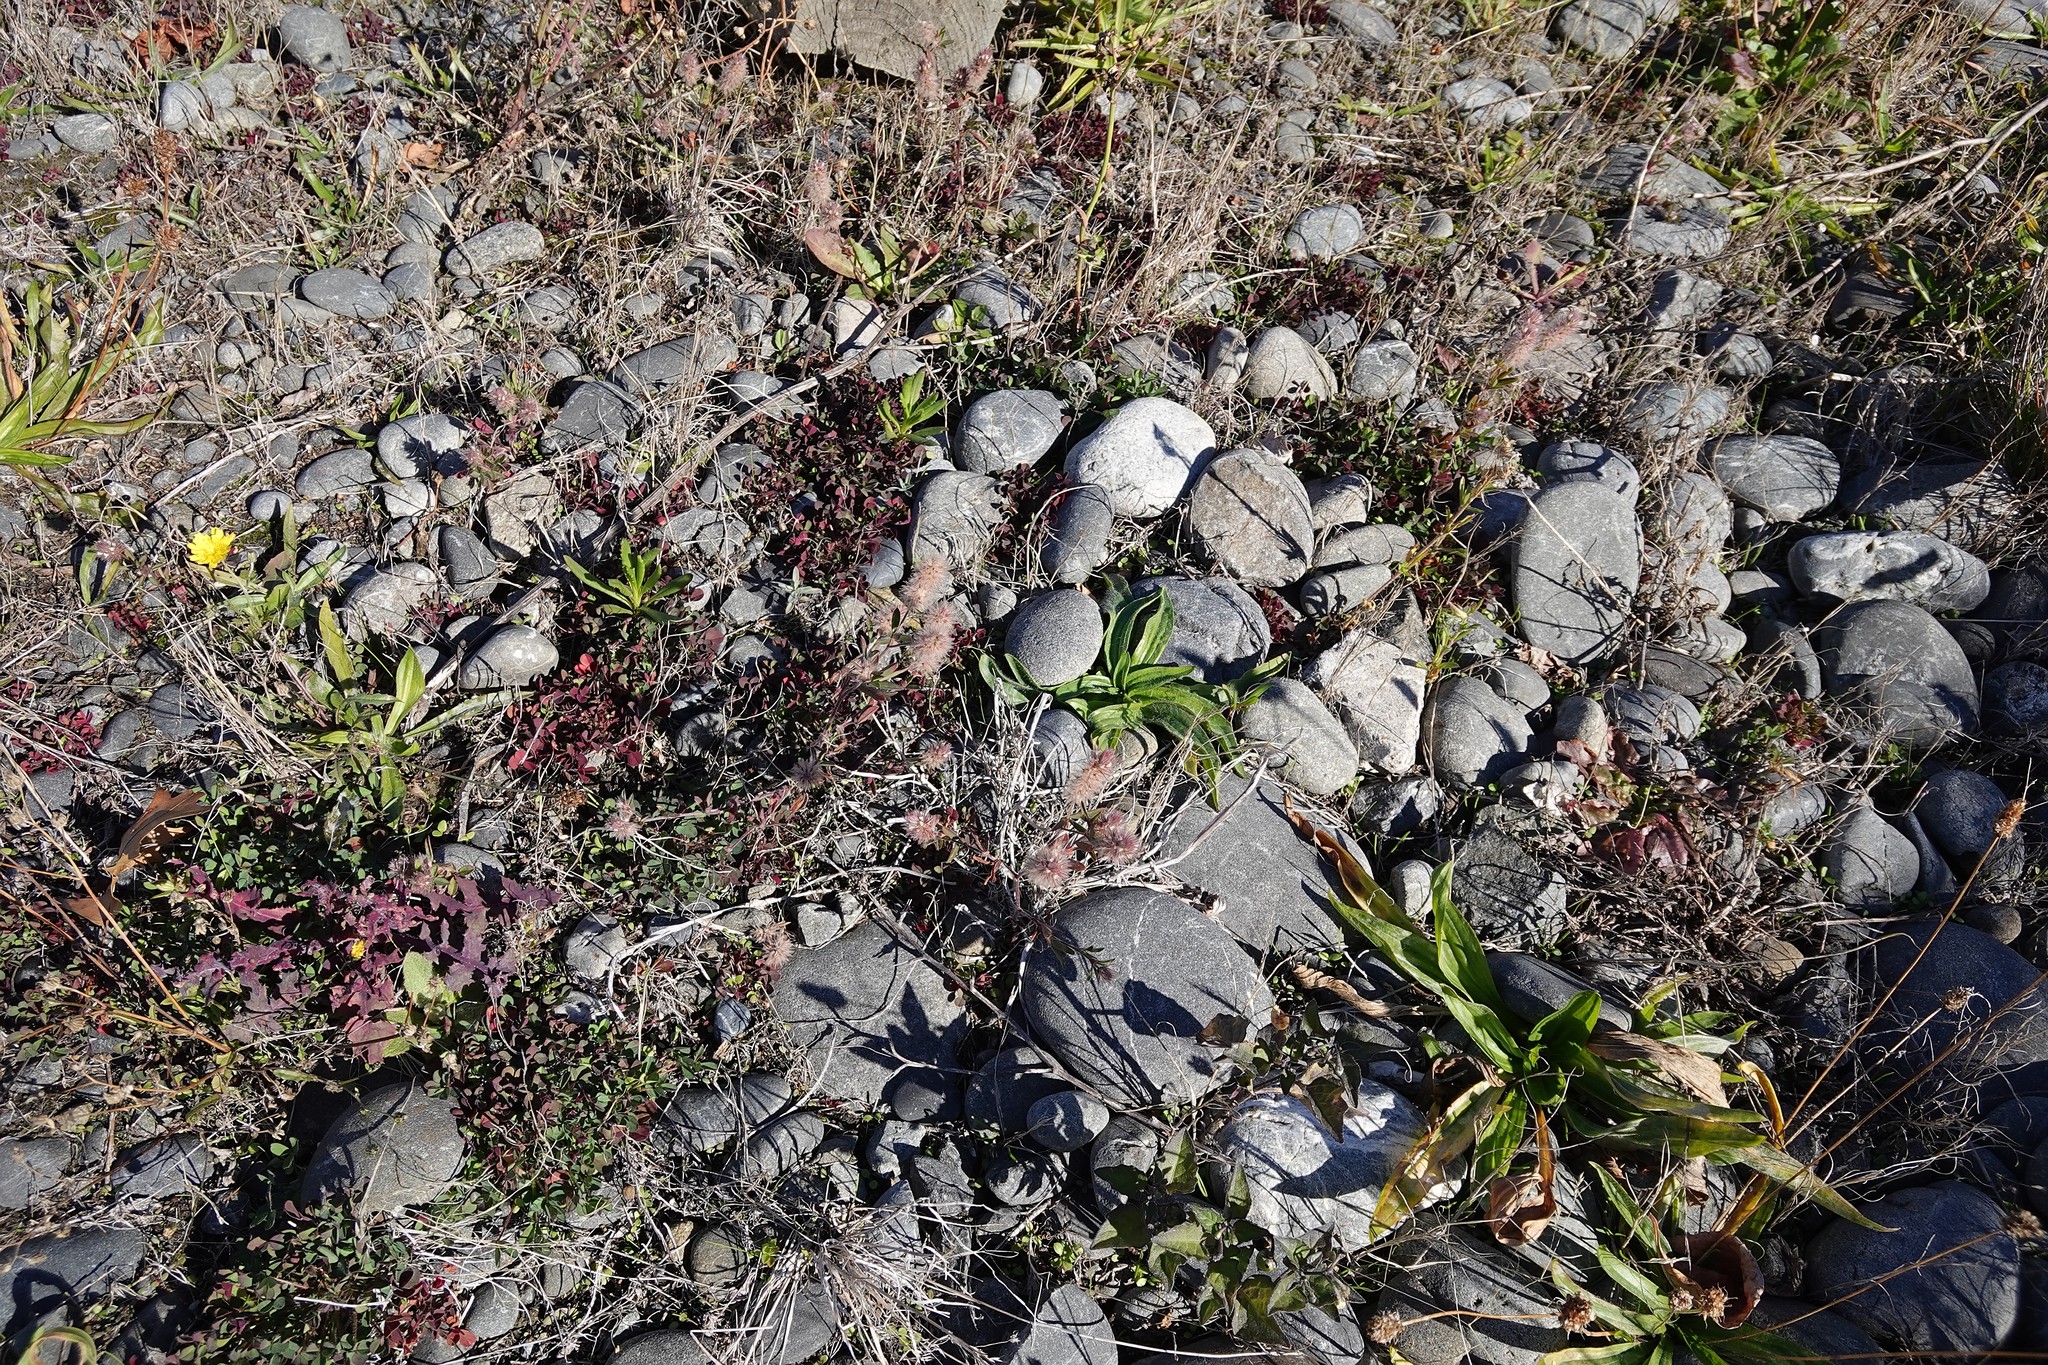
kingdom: Plantae
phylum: Tracheophyta
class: Magnoliopsida
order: Fabales
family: Fabaceae
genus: Trifolium
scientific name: Trifolium arvense
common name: Hare's-foot clover
